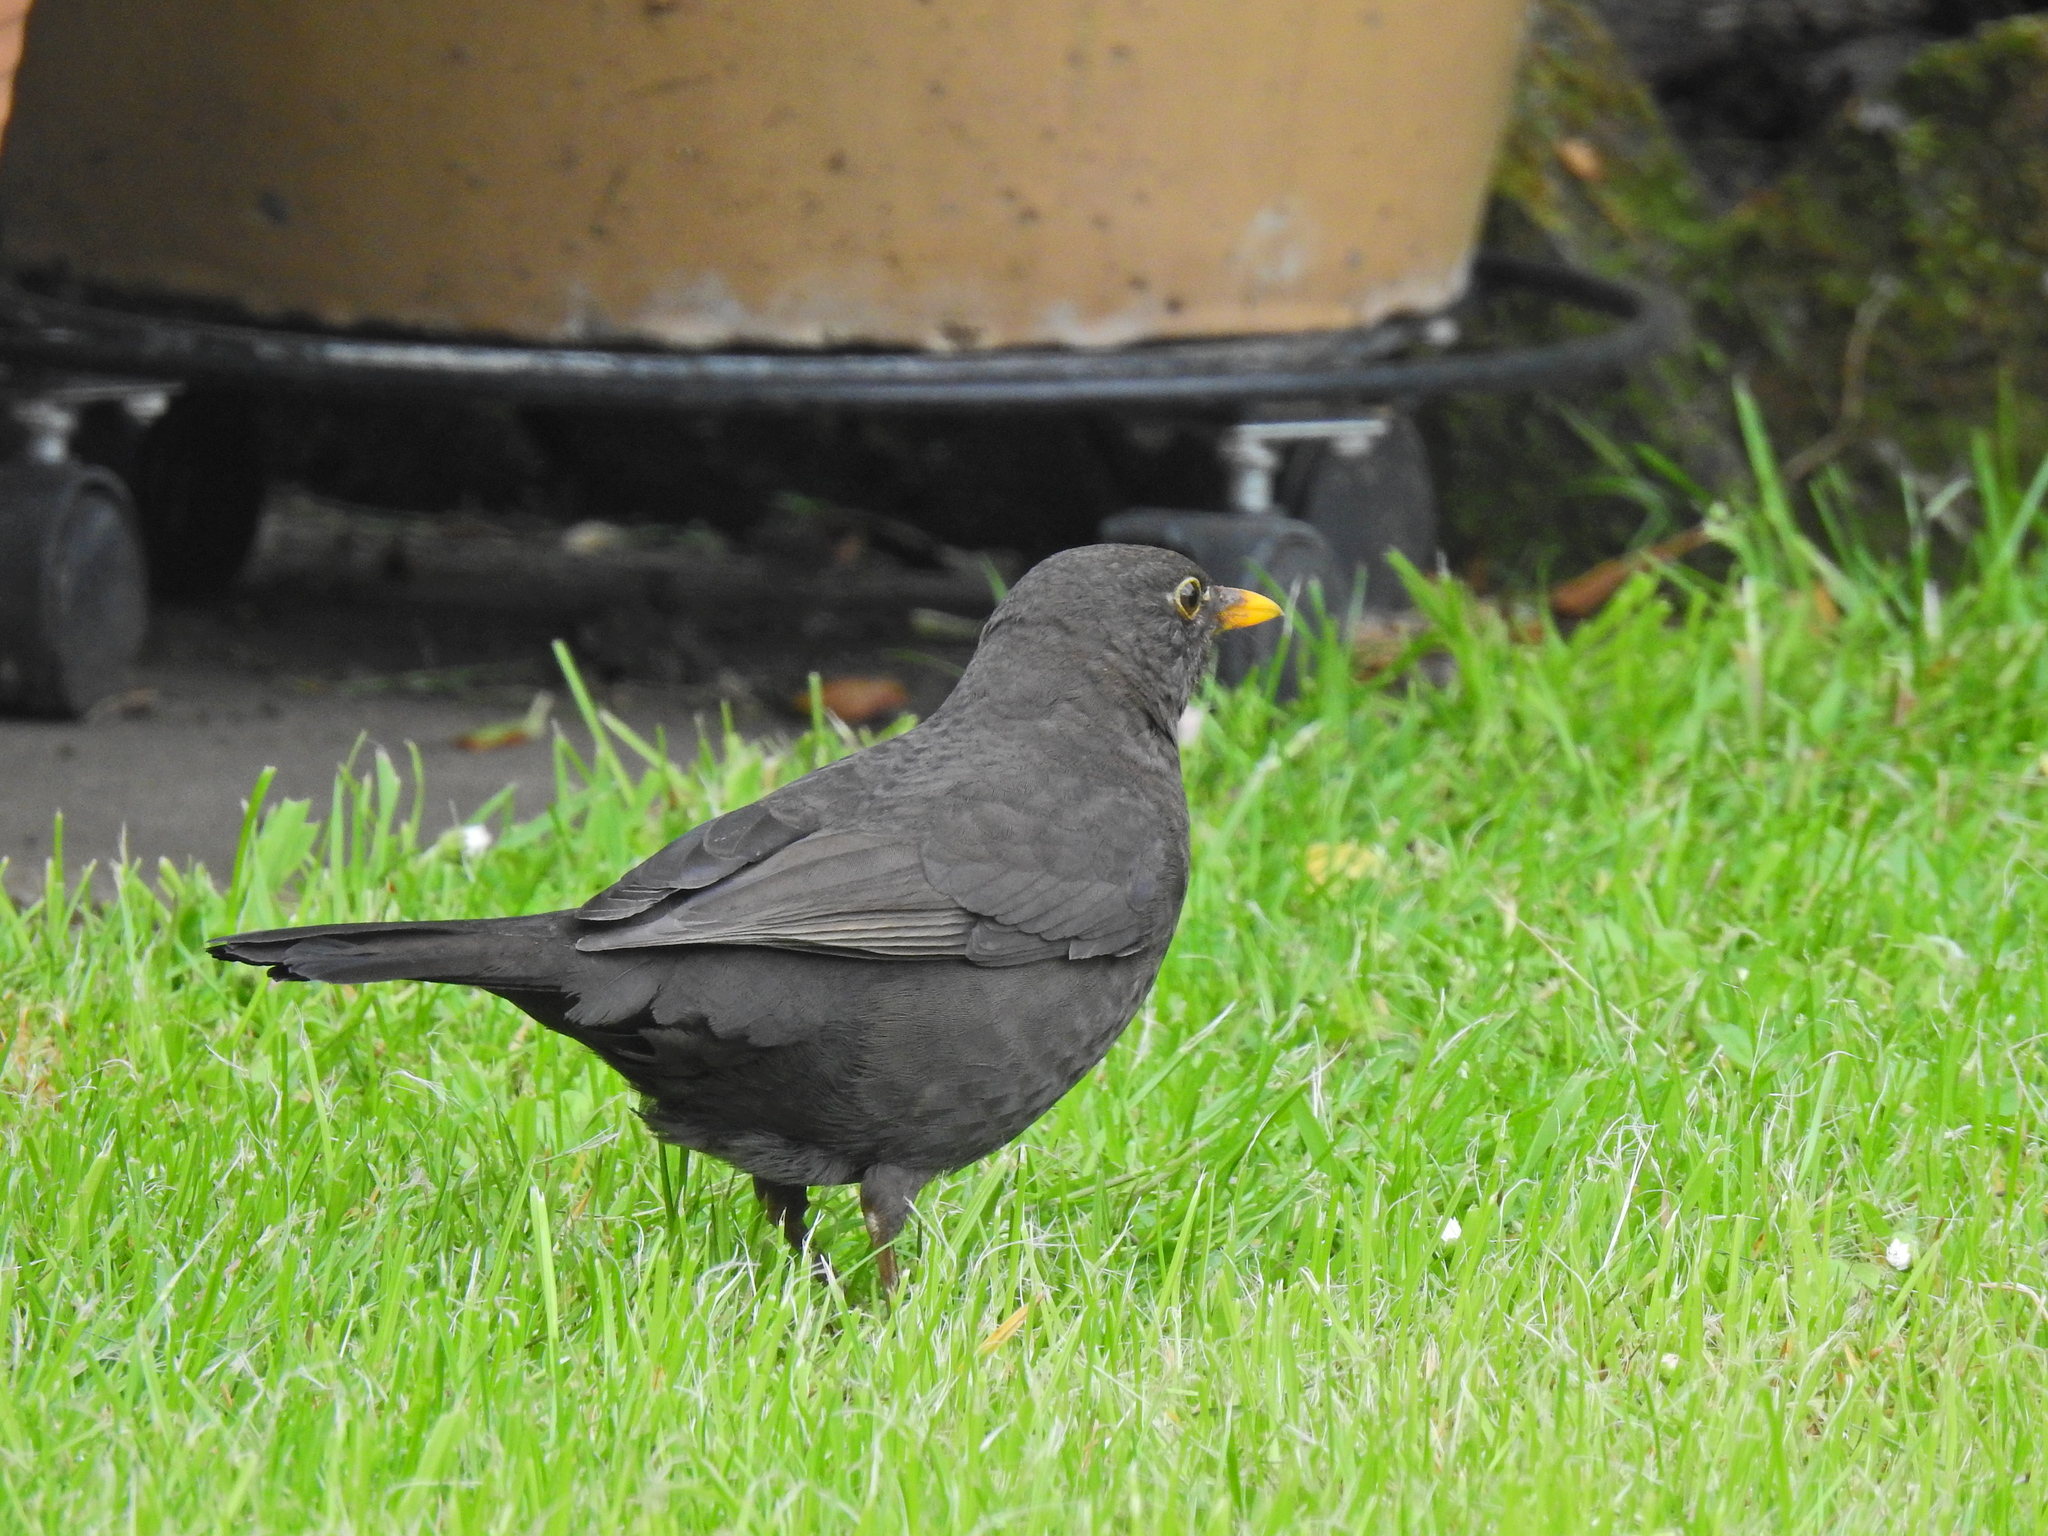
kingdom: Animalia
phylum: Chordata
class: Aves
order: Passeriformes
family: Turdidae
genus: Turdus
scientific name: Turdus merula
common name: Common blackbird
